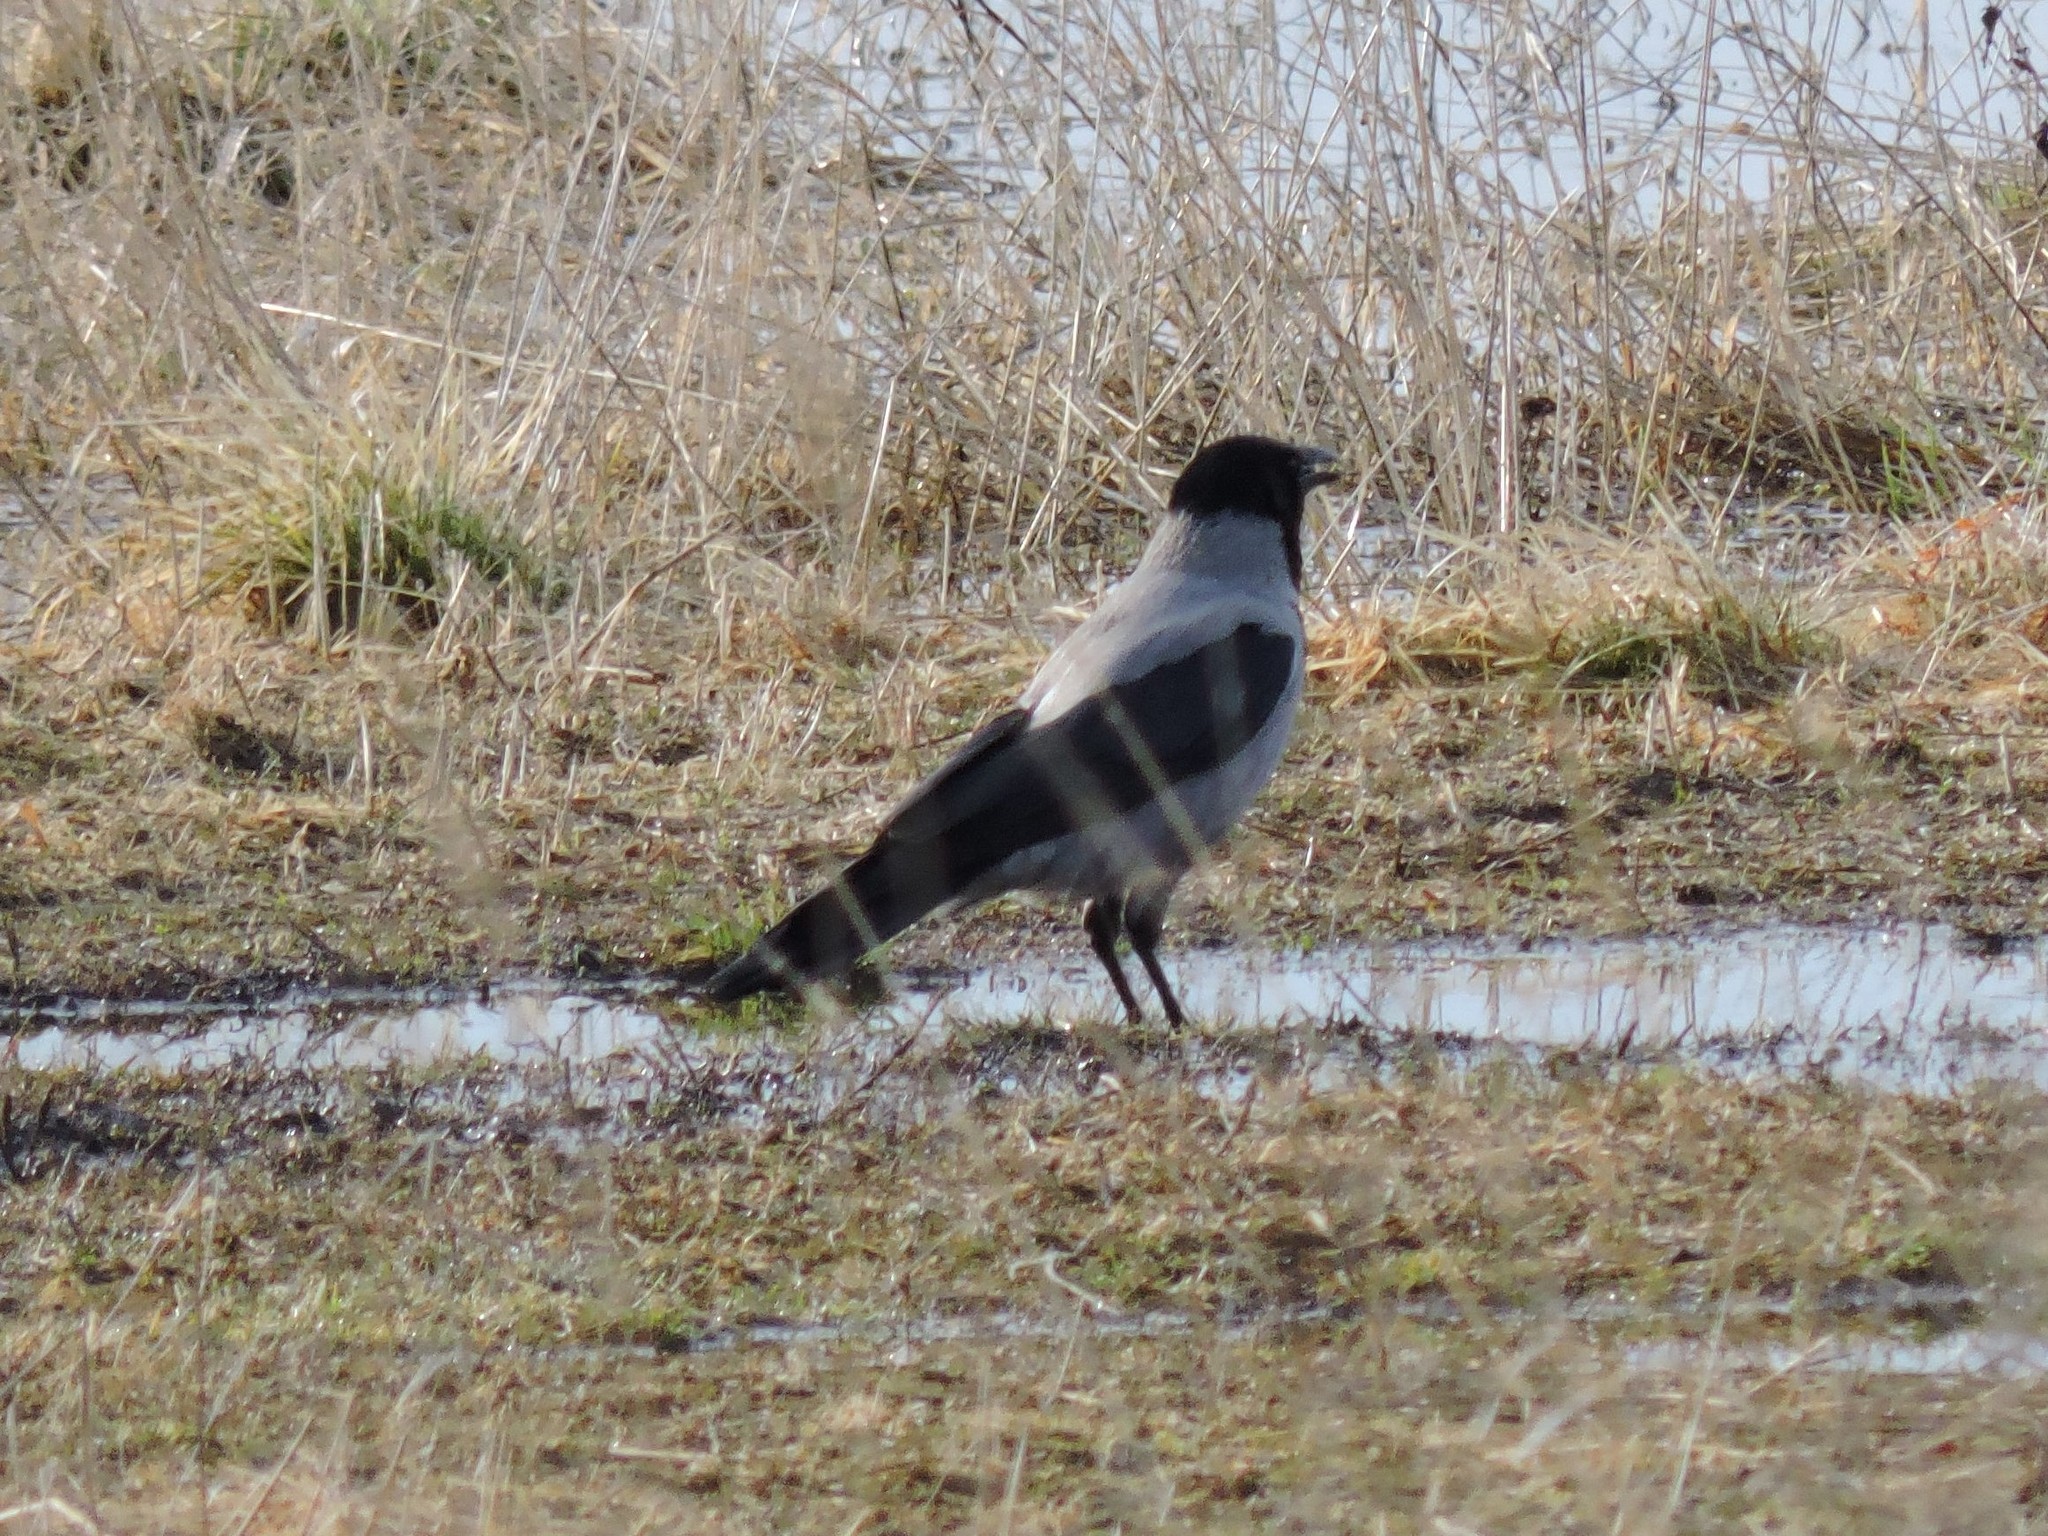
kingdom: Animalia
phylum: Chordata
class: Aves
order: Passeriformes
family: Corvidae
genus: Corvus
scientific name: Corvus cornix
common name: Hooded crow
